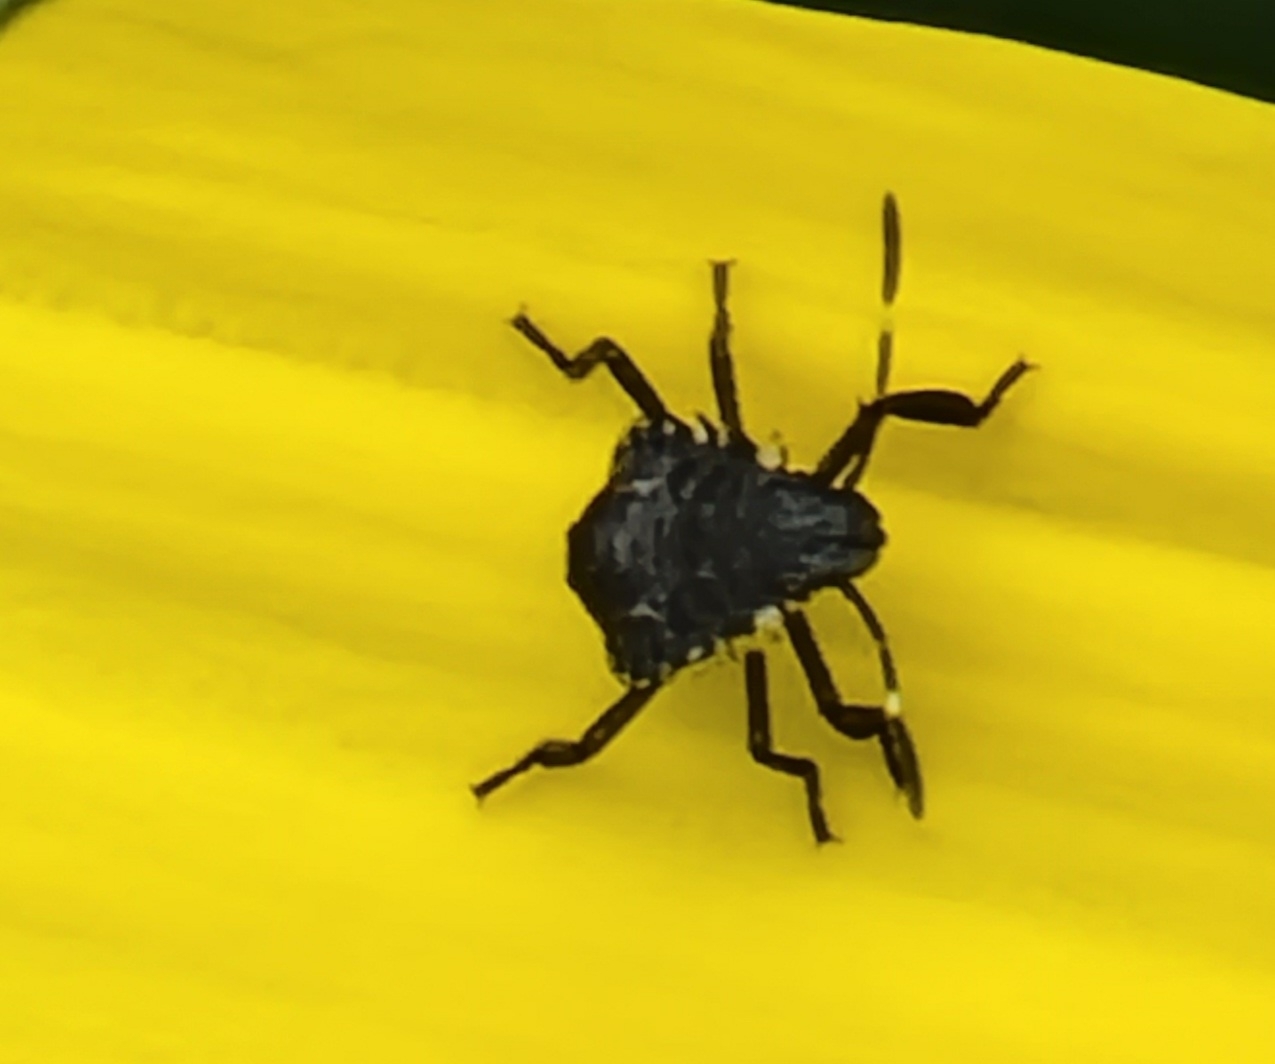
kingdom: Animalia
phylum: Arthropoda
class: Insecta
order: Hemiptera
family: Pentatomidae
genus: Halyomorpha
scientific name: Halyomorpha halys
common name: Brown marmorated stink bug
